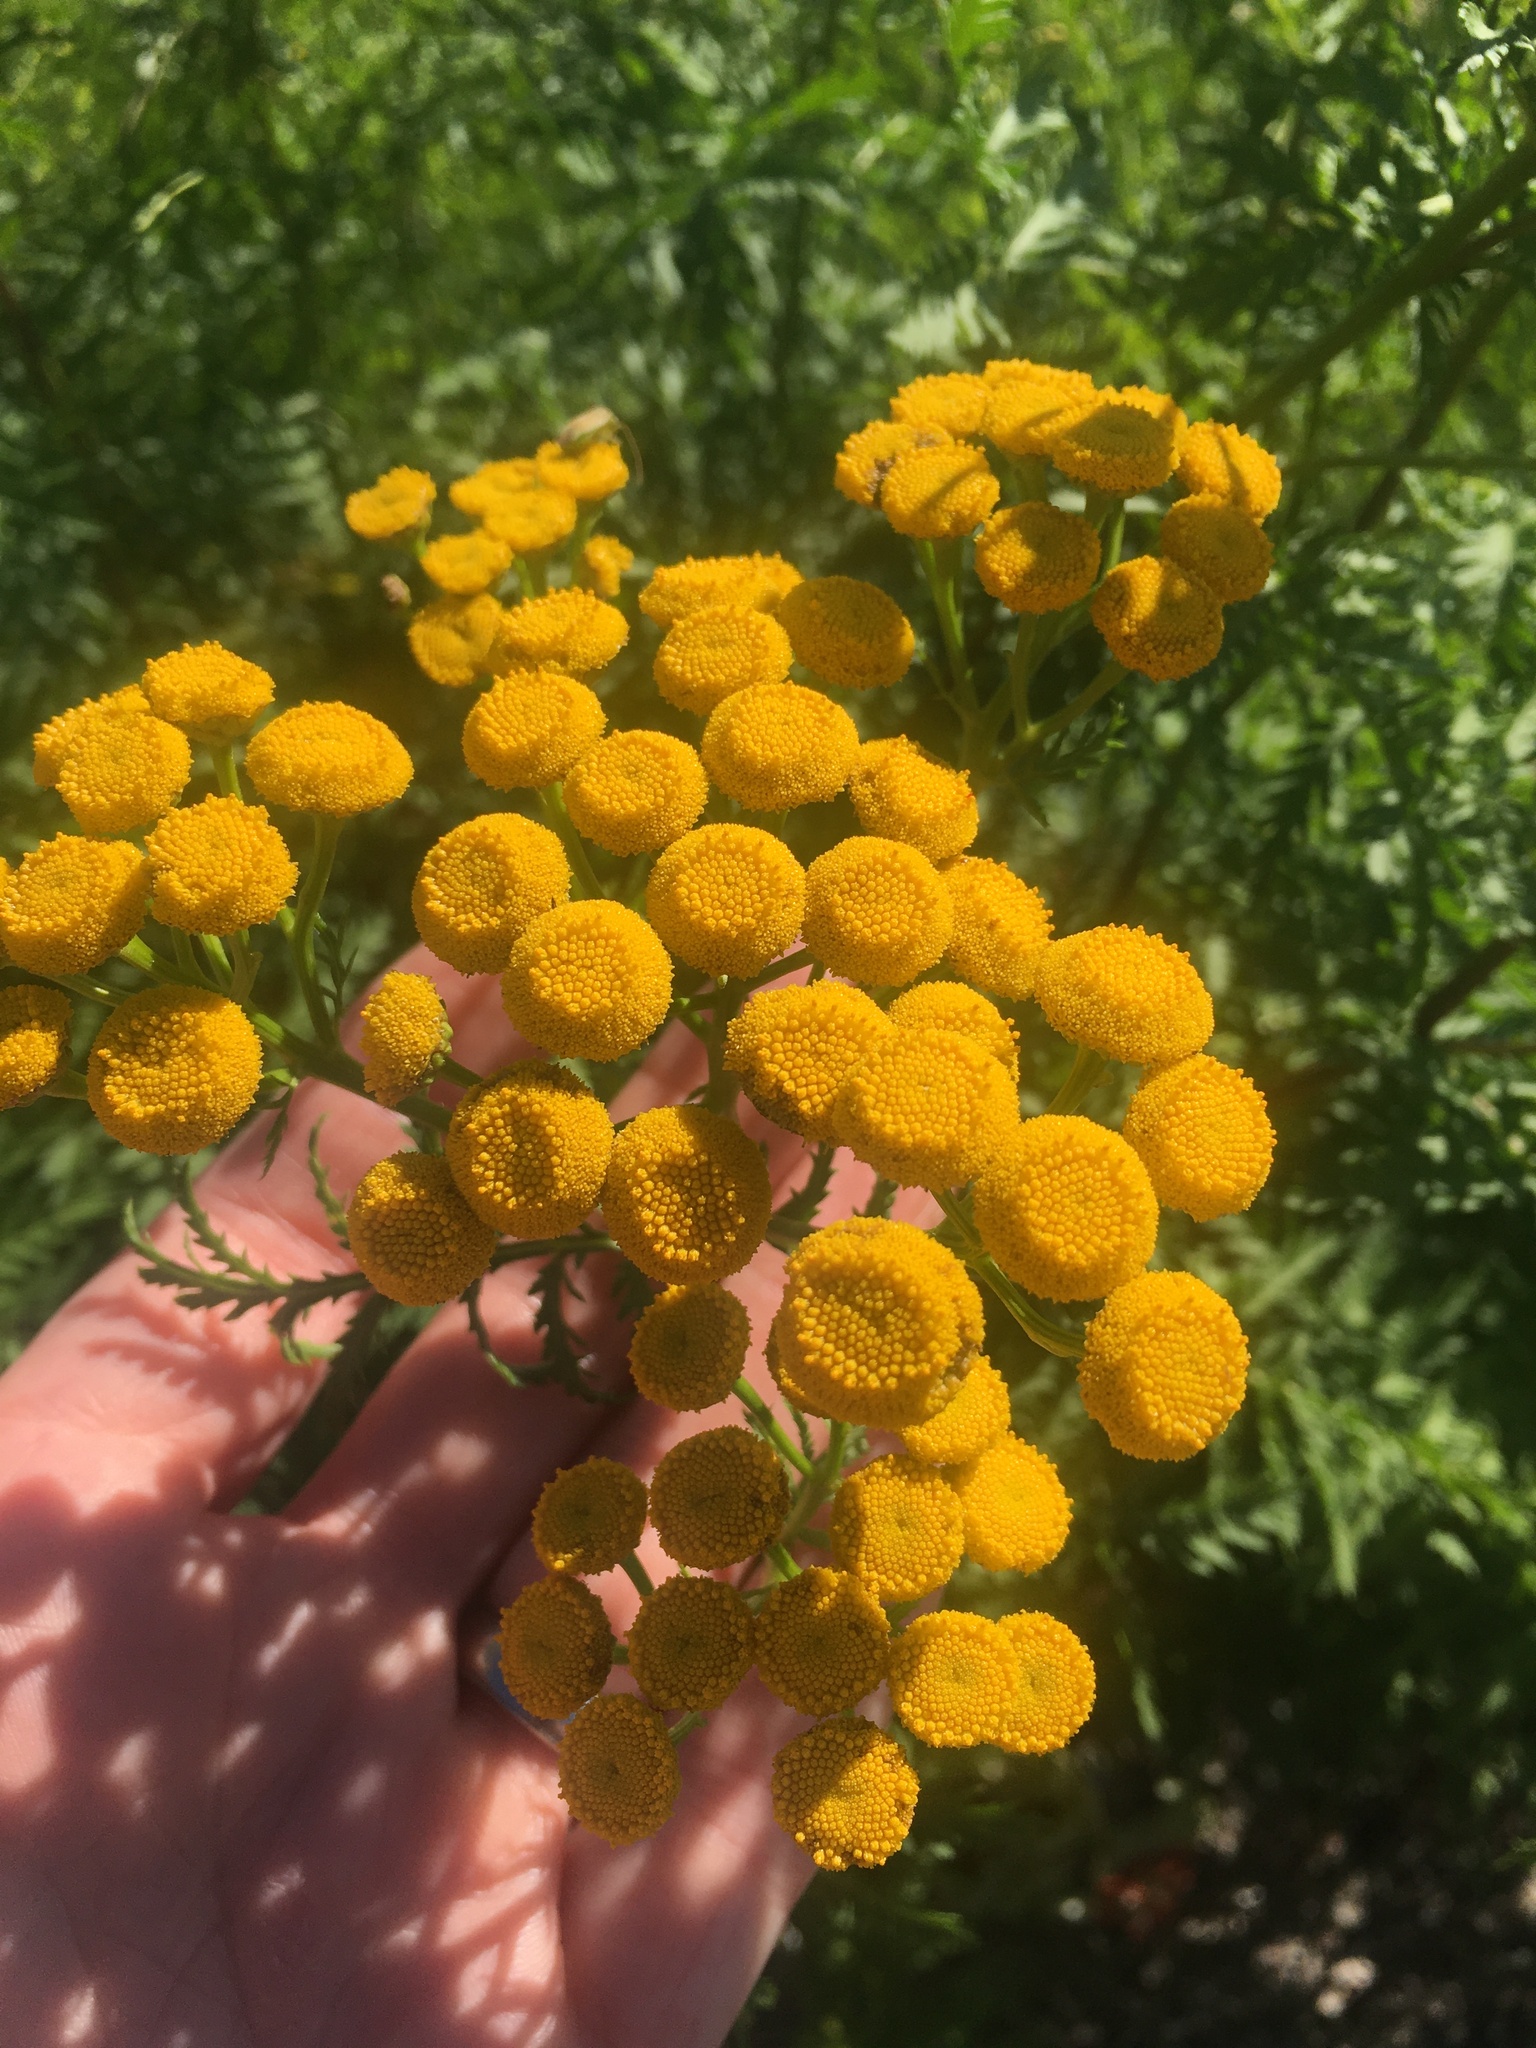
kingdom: Plantae
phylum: Tracheophyta
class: Magnoliopsida
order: Asterales
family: Asteraceae
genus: Tanacetum
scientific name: Tanacetum vulgare
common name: Common tansy
